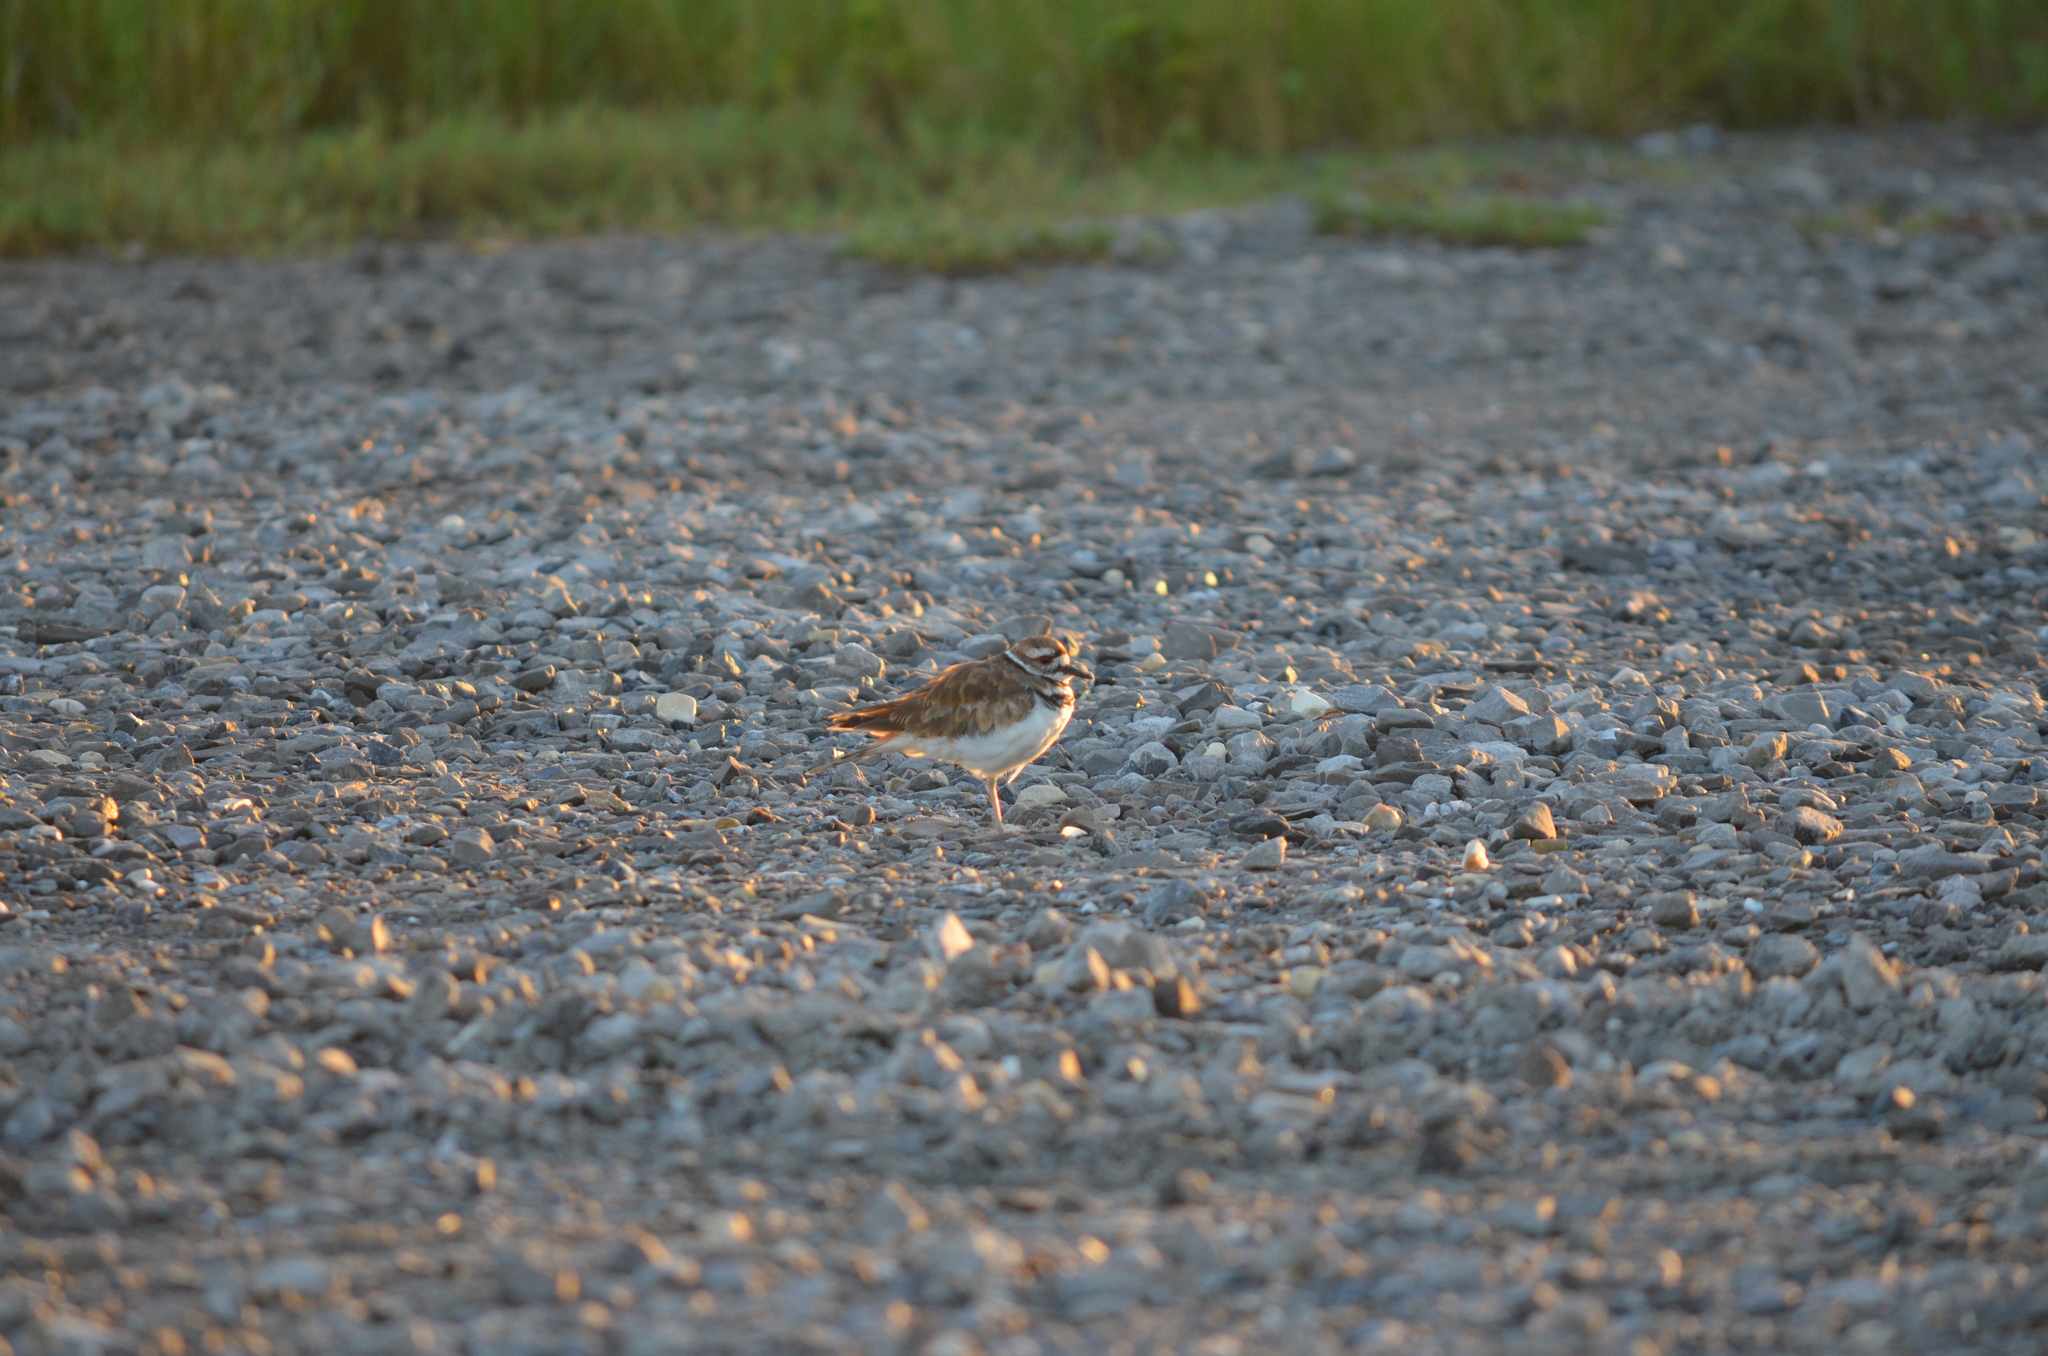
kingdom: Animalia
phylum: Chordata
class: Aves
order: Charadriiformes
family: Charadriidae
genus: Charadrius
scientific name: Charadrius vociferus
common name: Killdeer
